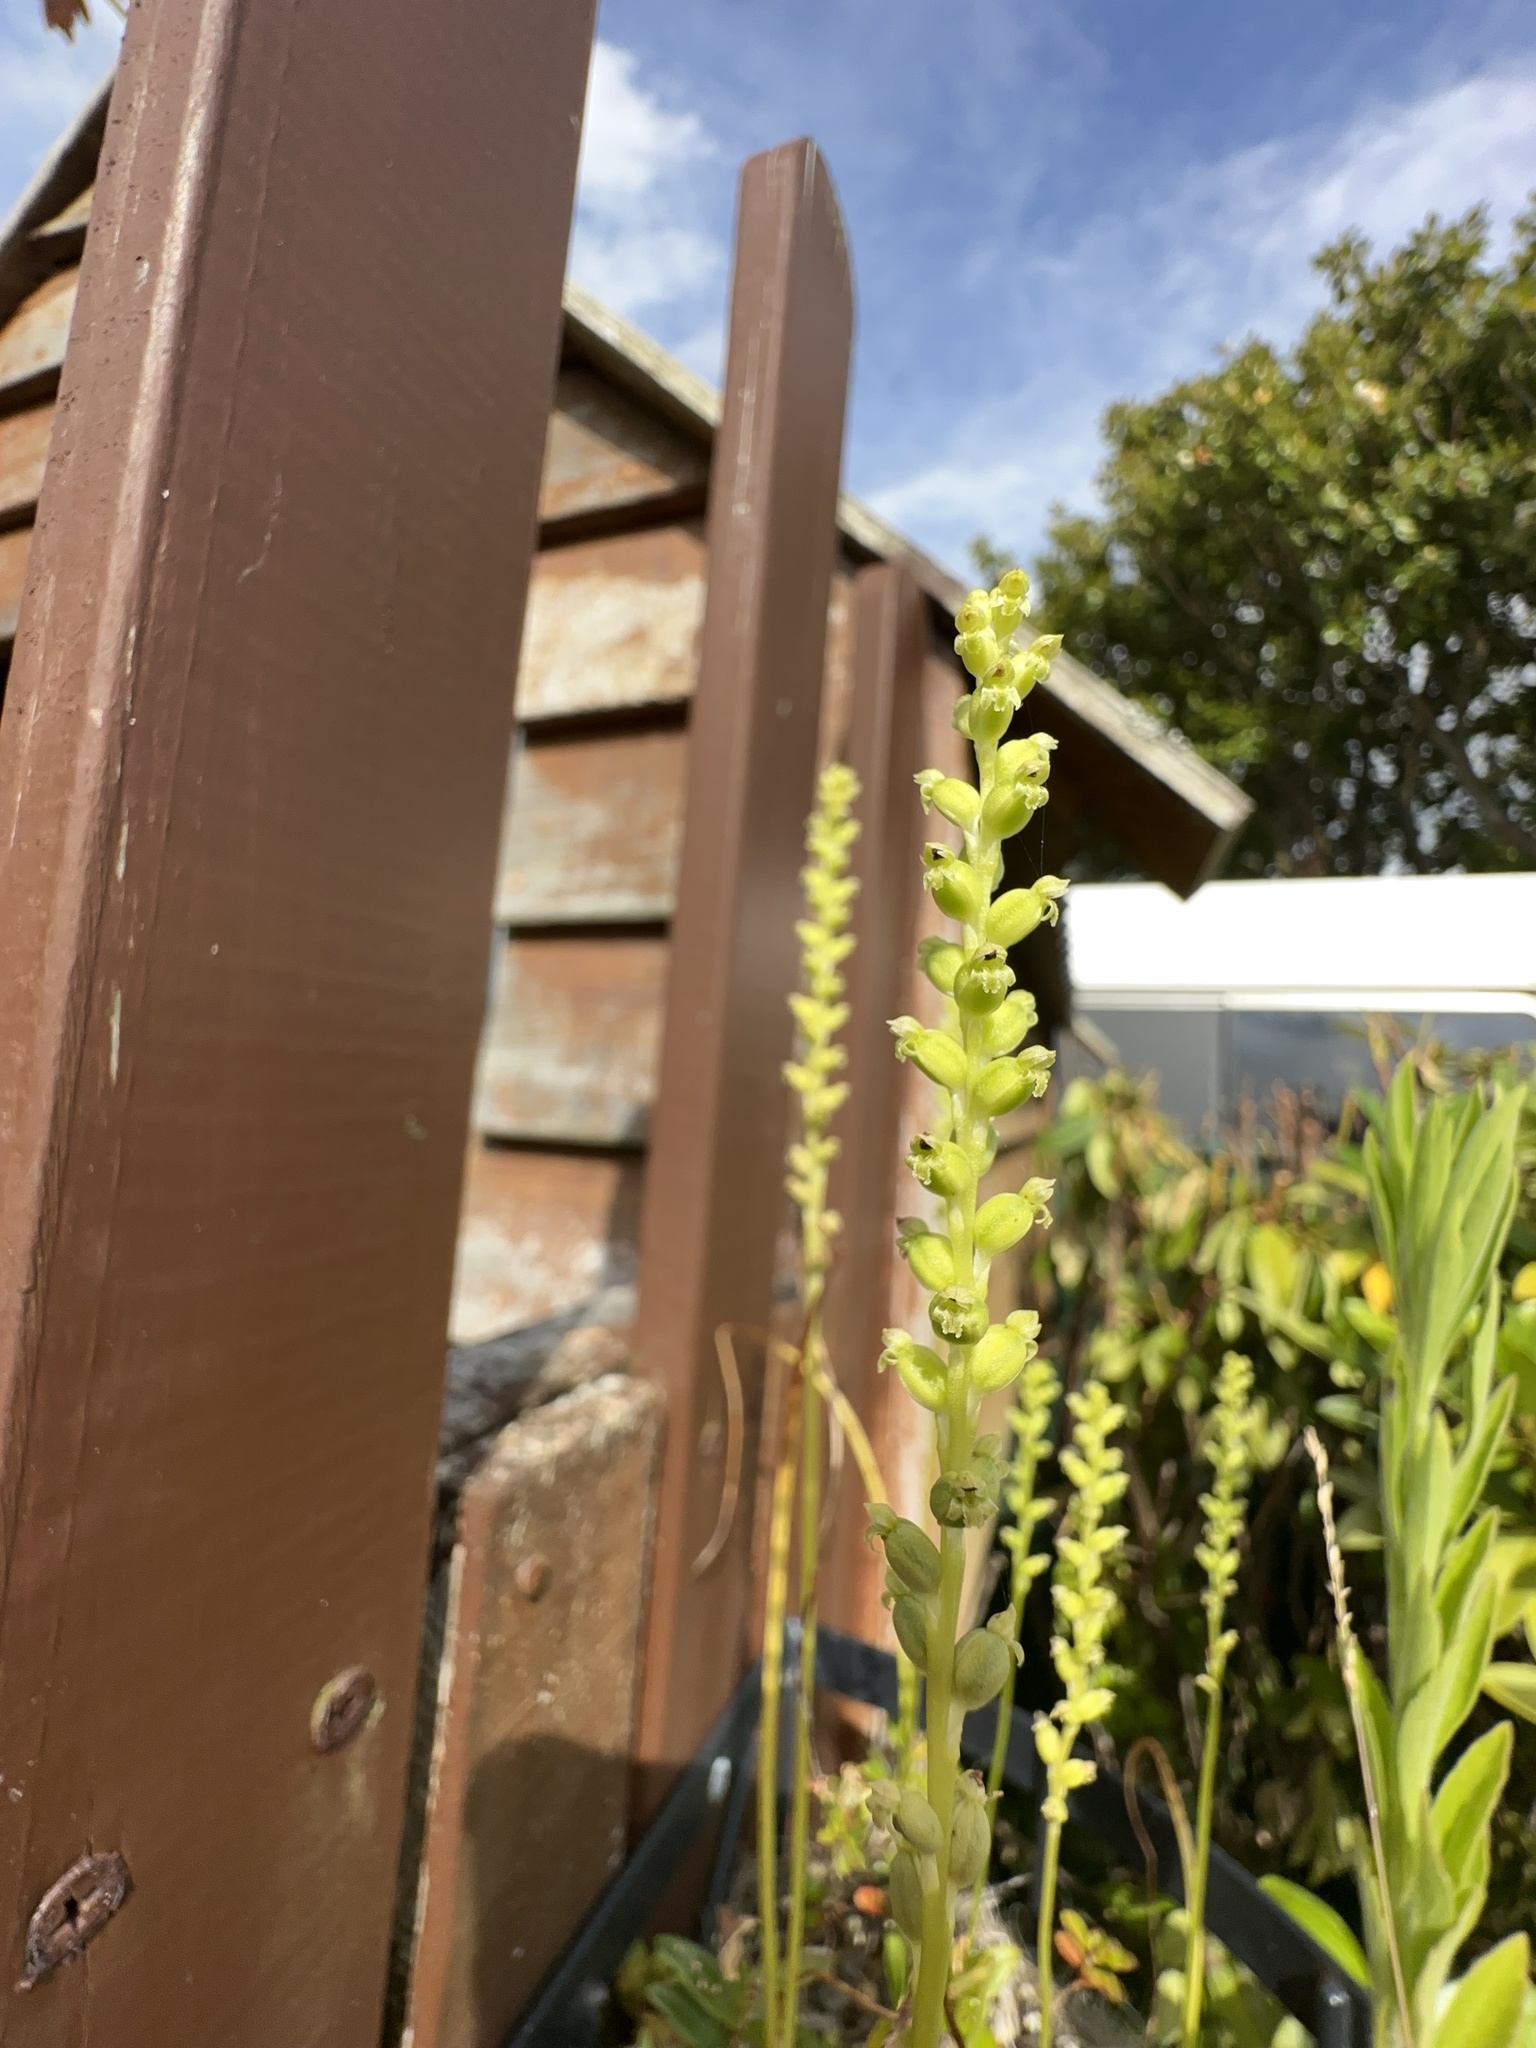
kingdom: Plantae
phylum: Tracheophyta
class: Liliopsida
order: Asparagales
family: Orchidaceae
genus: Microtis
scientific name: Microtis unifolia
